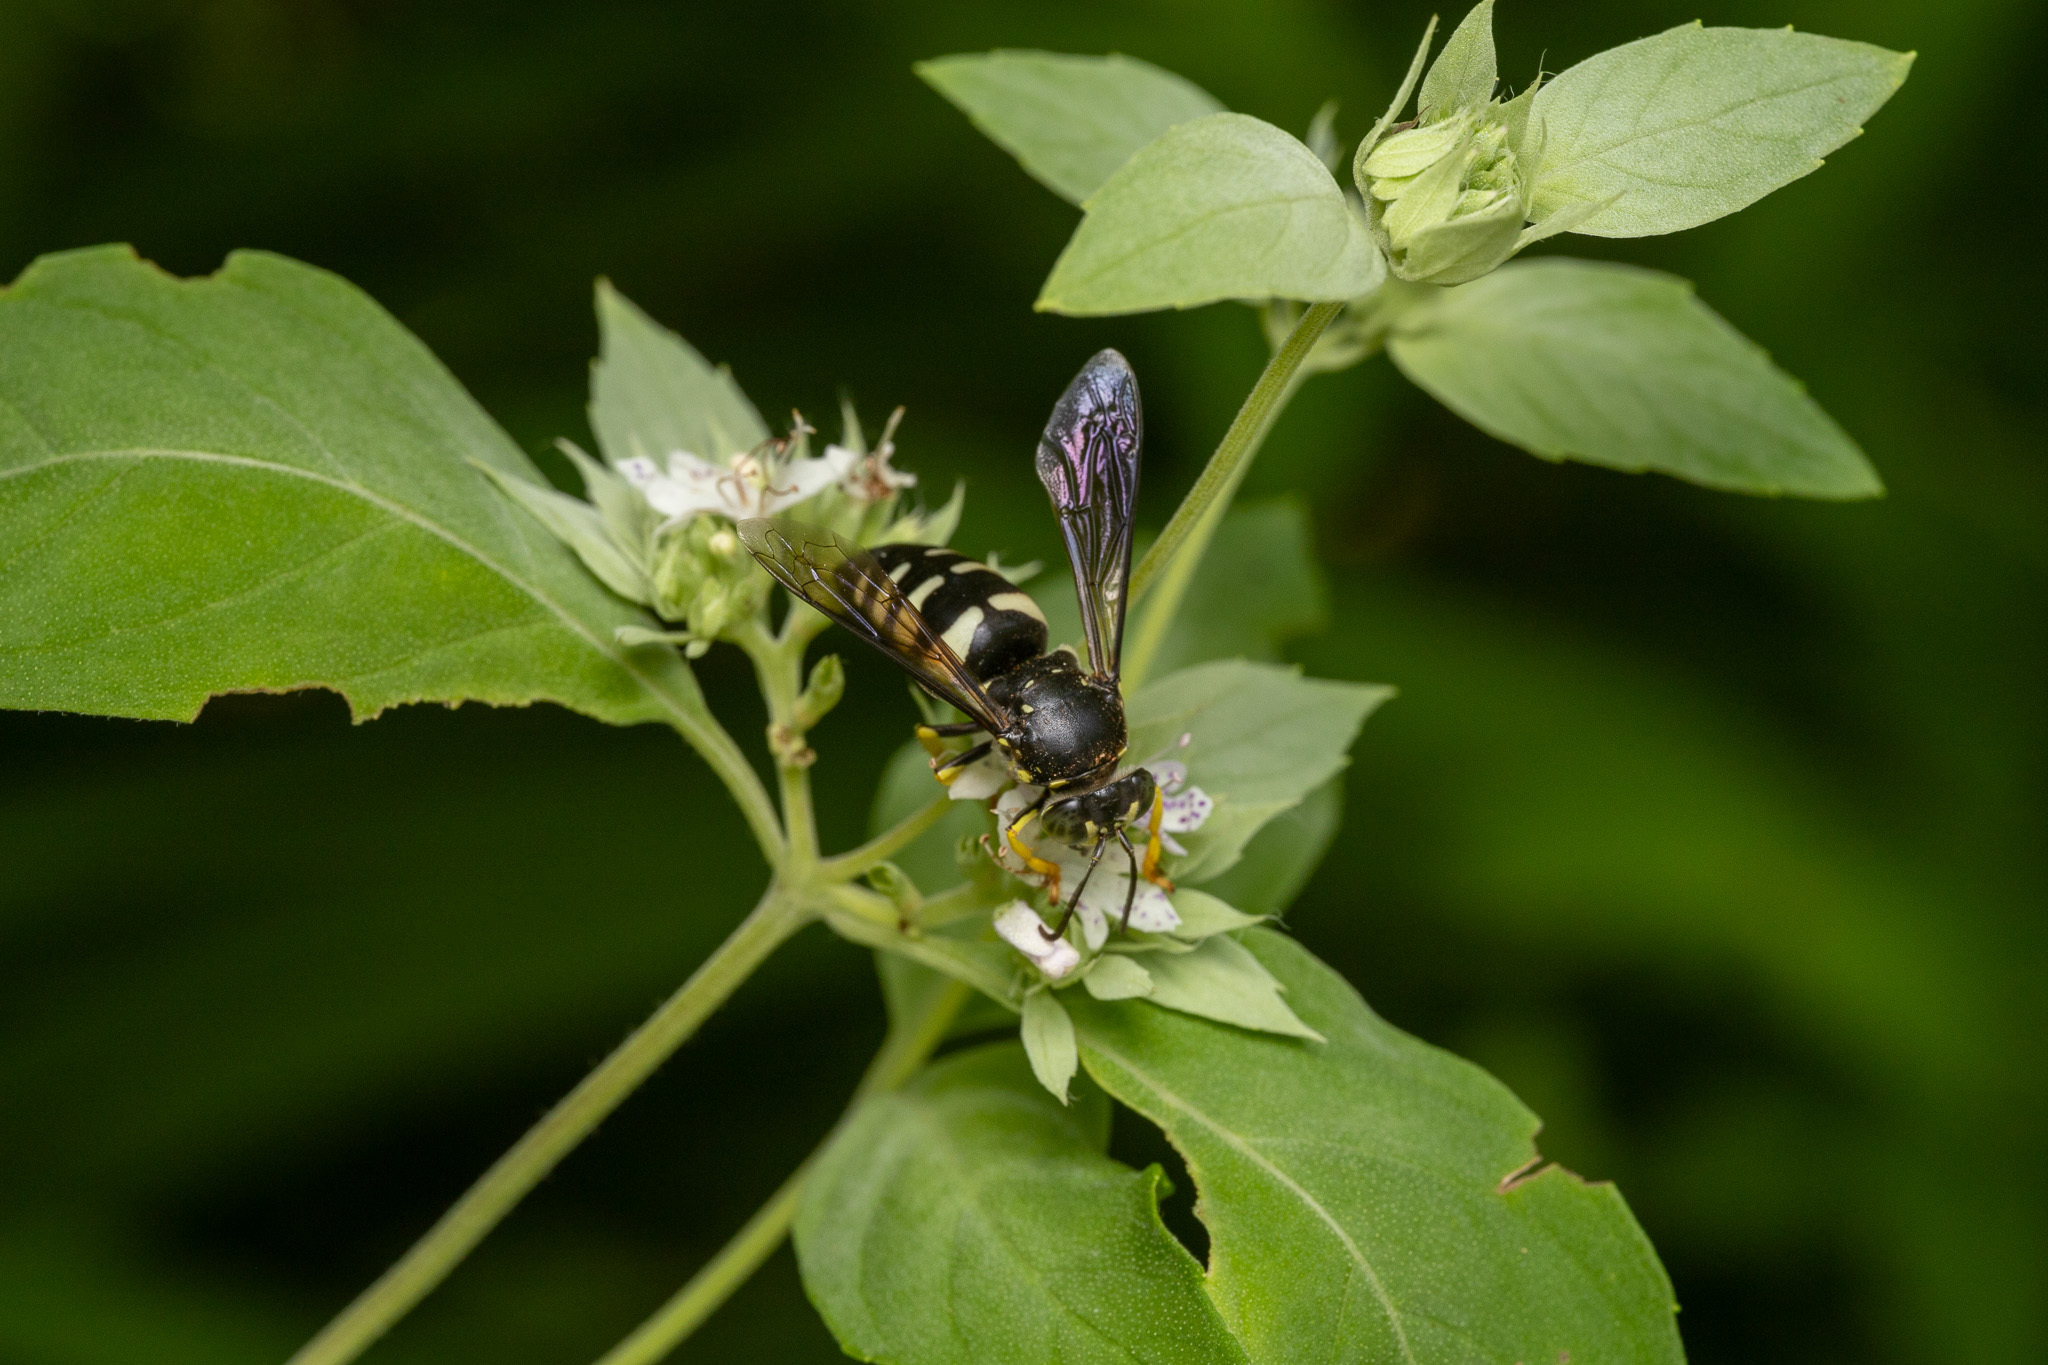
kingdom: Animalia
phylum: Arthropoda
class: Insecta
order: Hymenoptera
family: Crabronidae
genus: Bicyrtes
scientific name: Bicyrtes quadrifasciatus
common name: Four-banded stink bug hunter wasp
